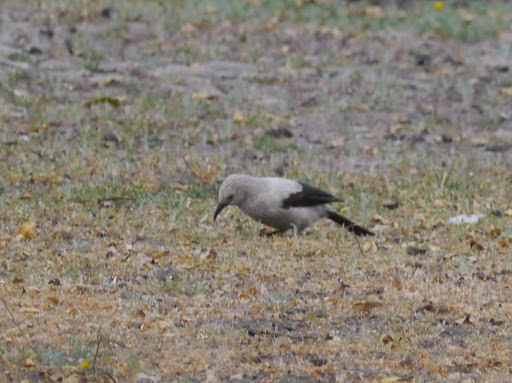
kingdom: Animalia
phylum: Chordata
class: Aves
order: Passeriformes
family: Leiothrichidae
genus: Turdoides
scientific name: Turdoides bicolor
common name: Southern pied babbler
